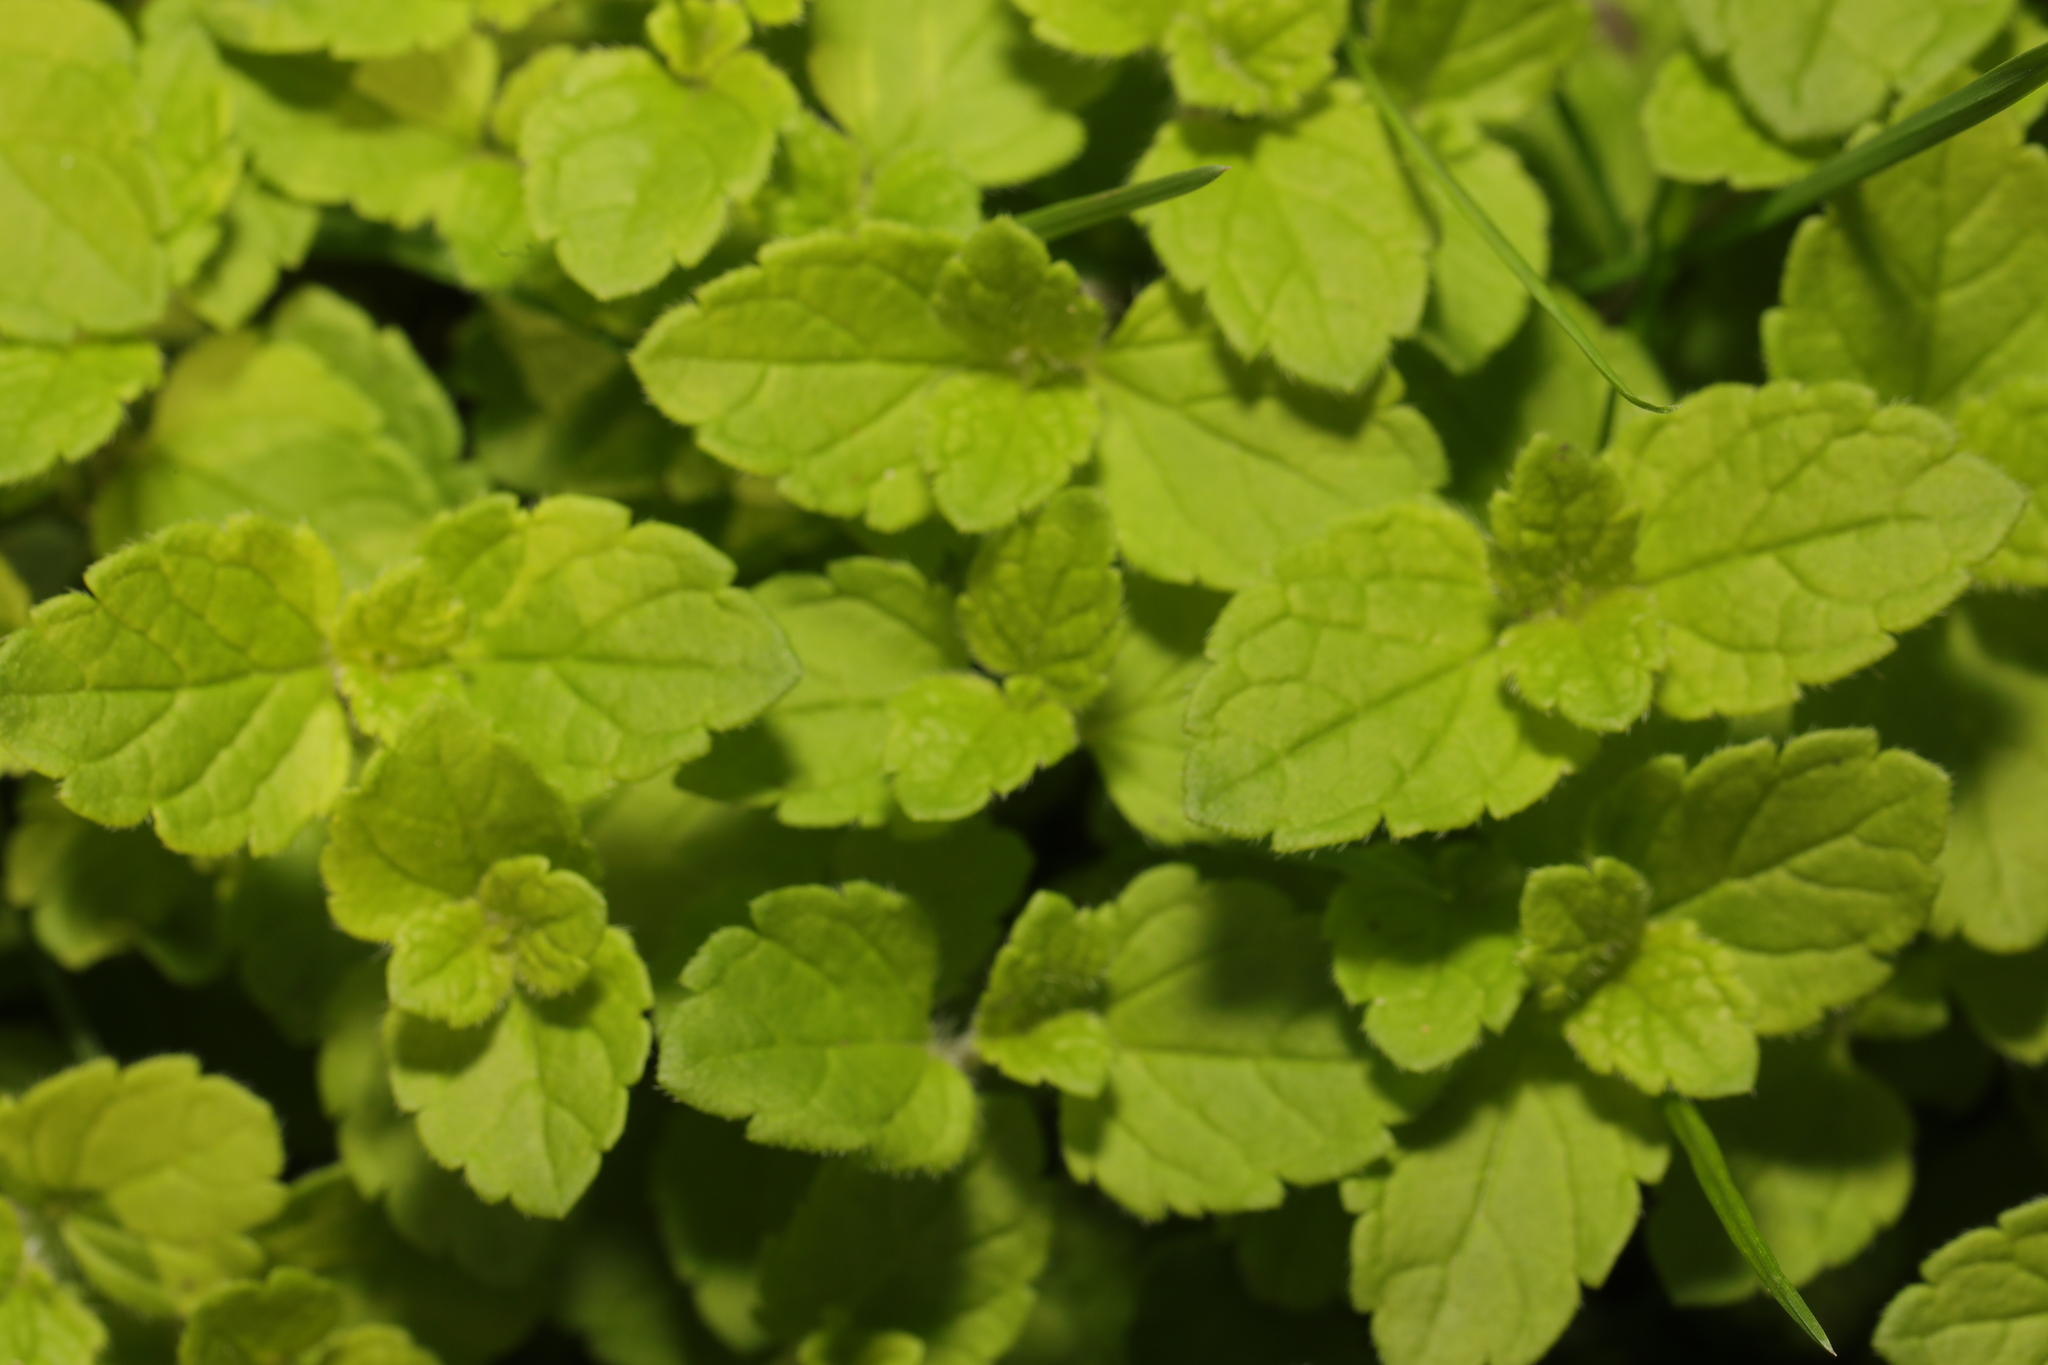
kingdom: Plantae
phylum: Tracheophyta
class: Magnoliopsida
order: Lamiales
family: Plantaginaceae
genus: Veronica
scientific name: Veronica chamaedrys
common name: Germander speedwell
